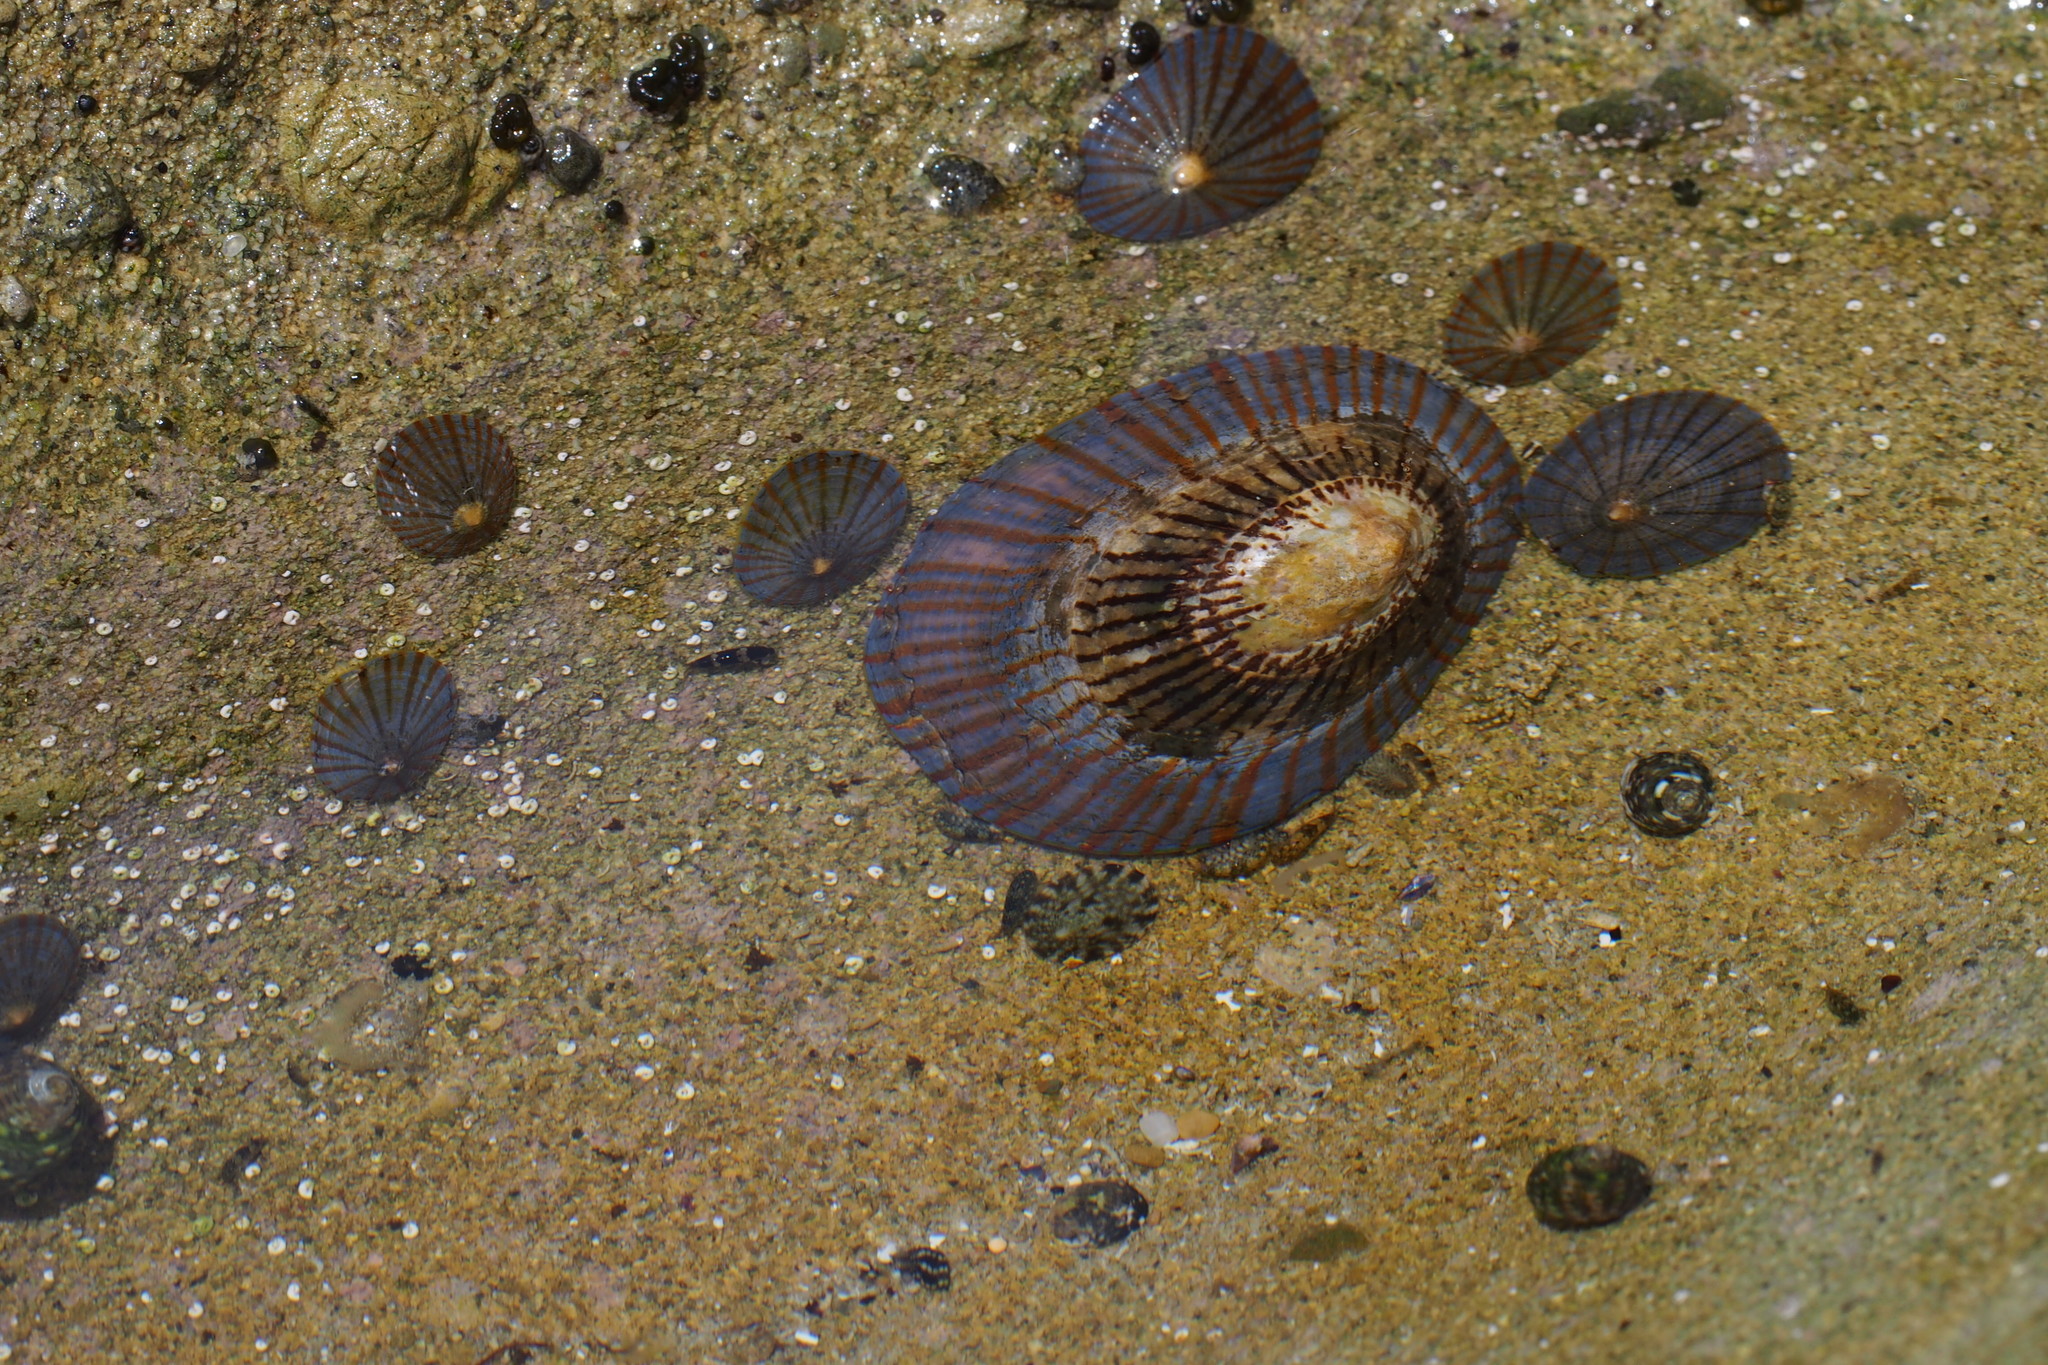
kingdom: Animalia
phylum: Mollusca
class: Gastropoda
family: Nacellidae
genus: Cellana
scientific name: Cellana nigrolineata
